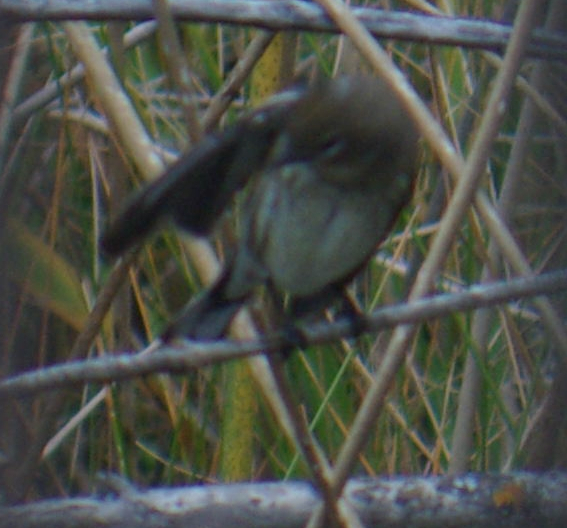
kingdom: Animalia
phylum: Chordata
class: Aves
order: Passeriformes
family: Parulidae
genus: Setophaga
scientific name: Setophaga coronata
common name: Myrtle warbler
